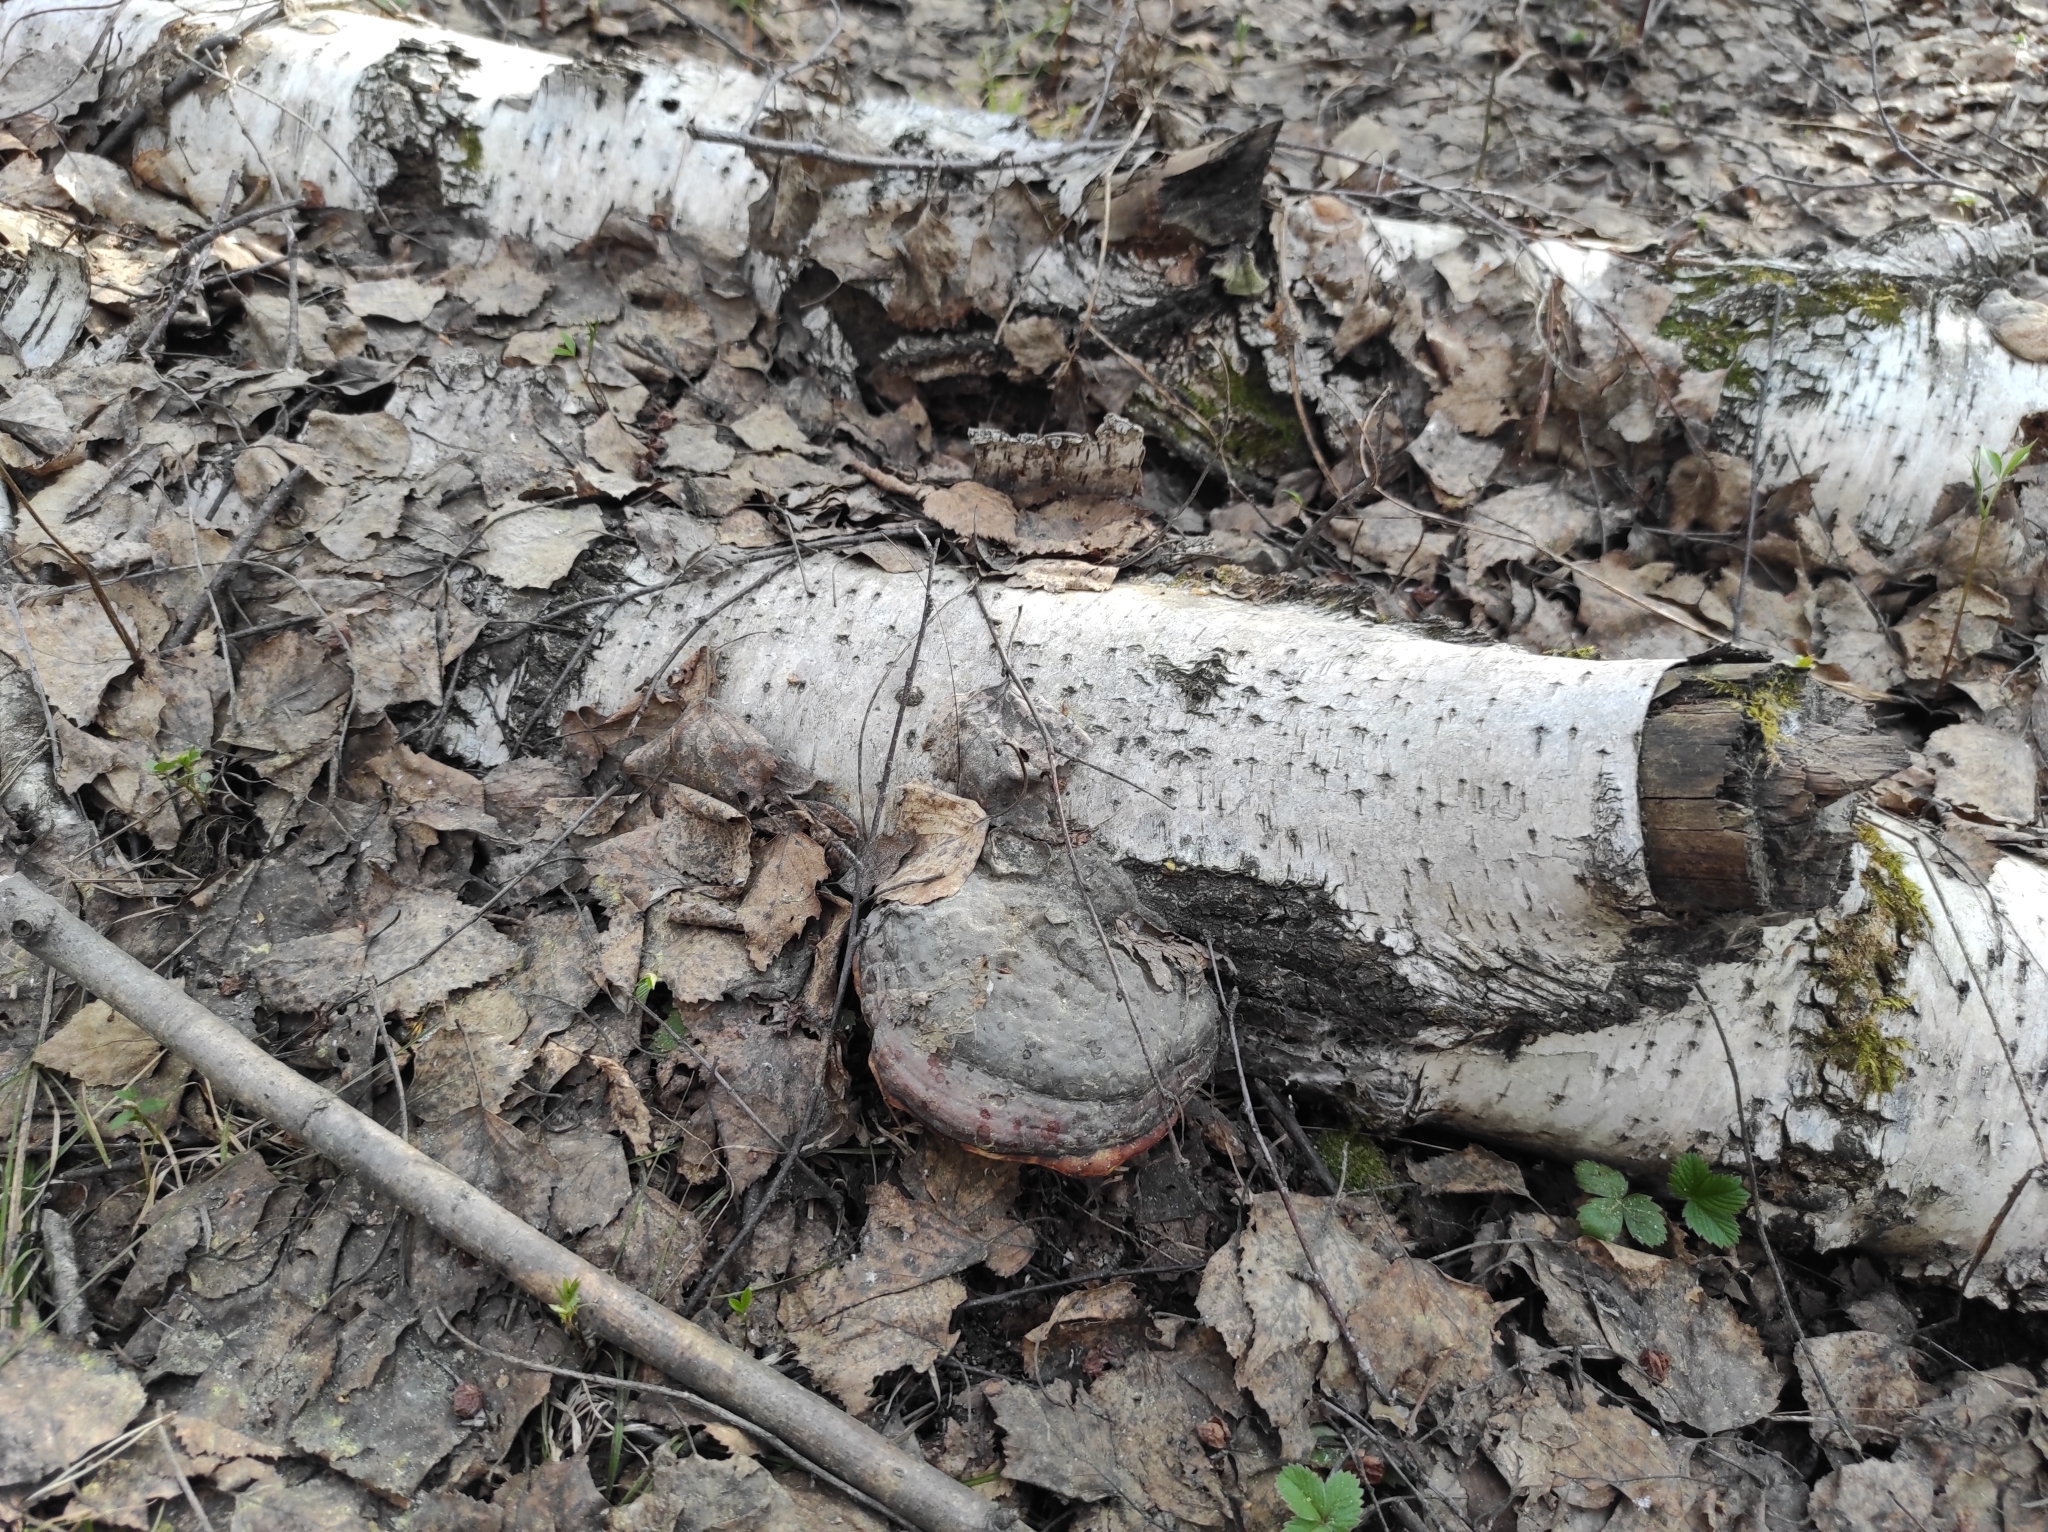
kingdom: Fungi
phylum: Basidiomycota
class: Agaricomycetes
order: Polyporales
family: Fomitopsidaceae
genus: Fomitopsis
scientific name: Fomitopsis pinicola
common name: Red-belted bracket
